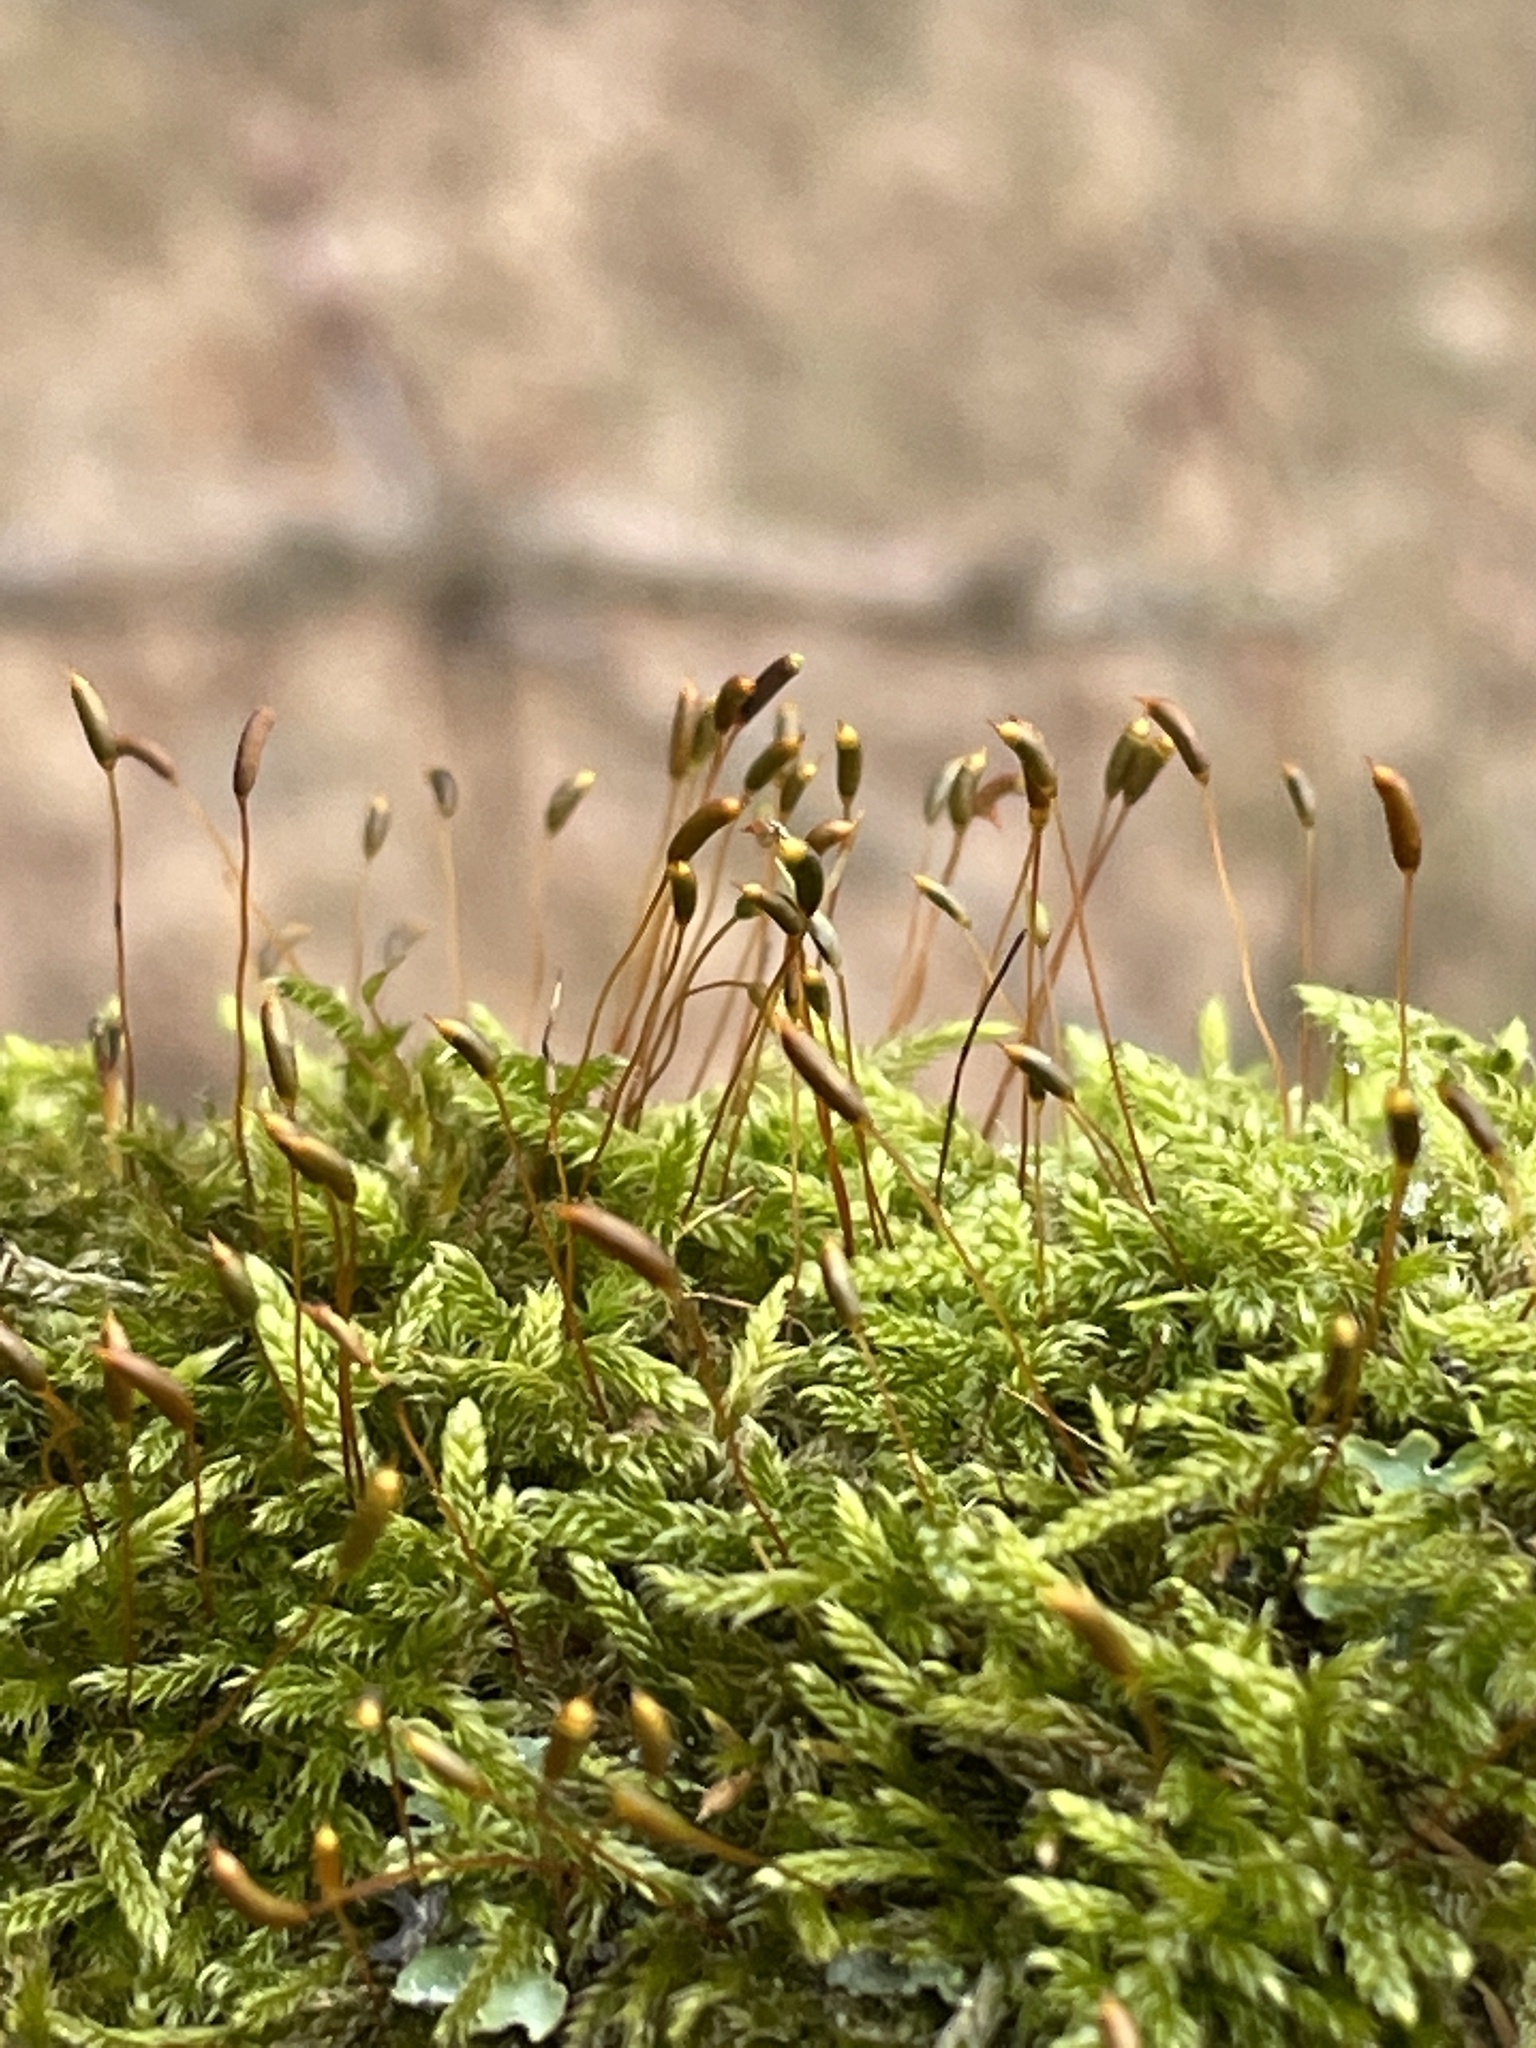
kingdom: Plantae
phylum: Bryophyta
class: Bryopsida
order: Hypnales
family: Hypnaceae
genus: Hypnum
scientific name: Hypnum cupressiforme
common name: Cypress-leaved plait-moss
